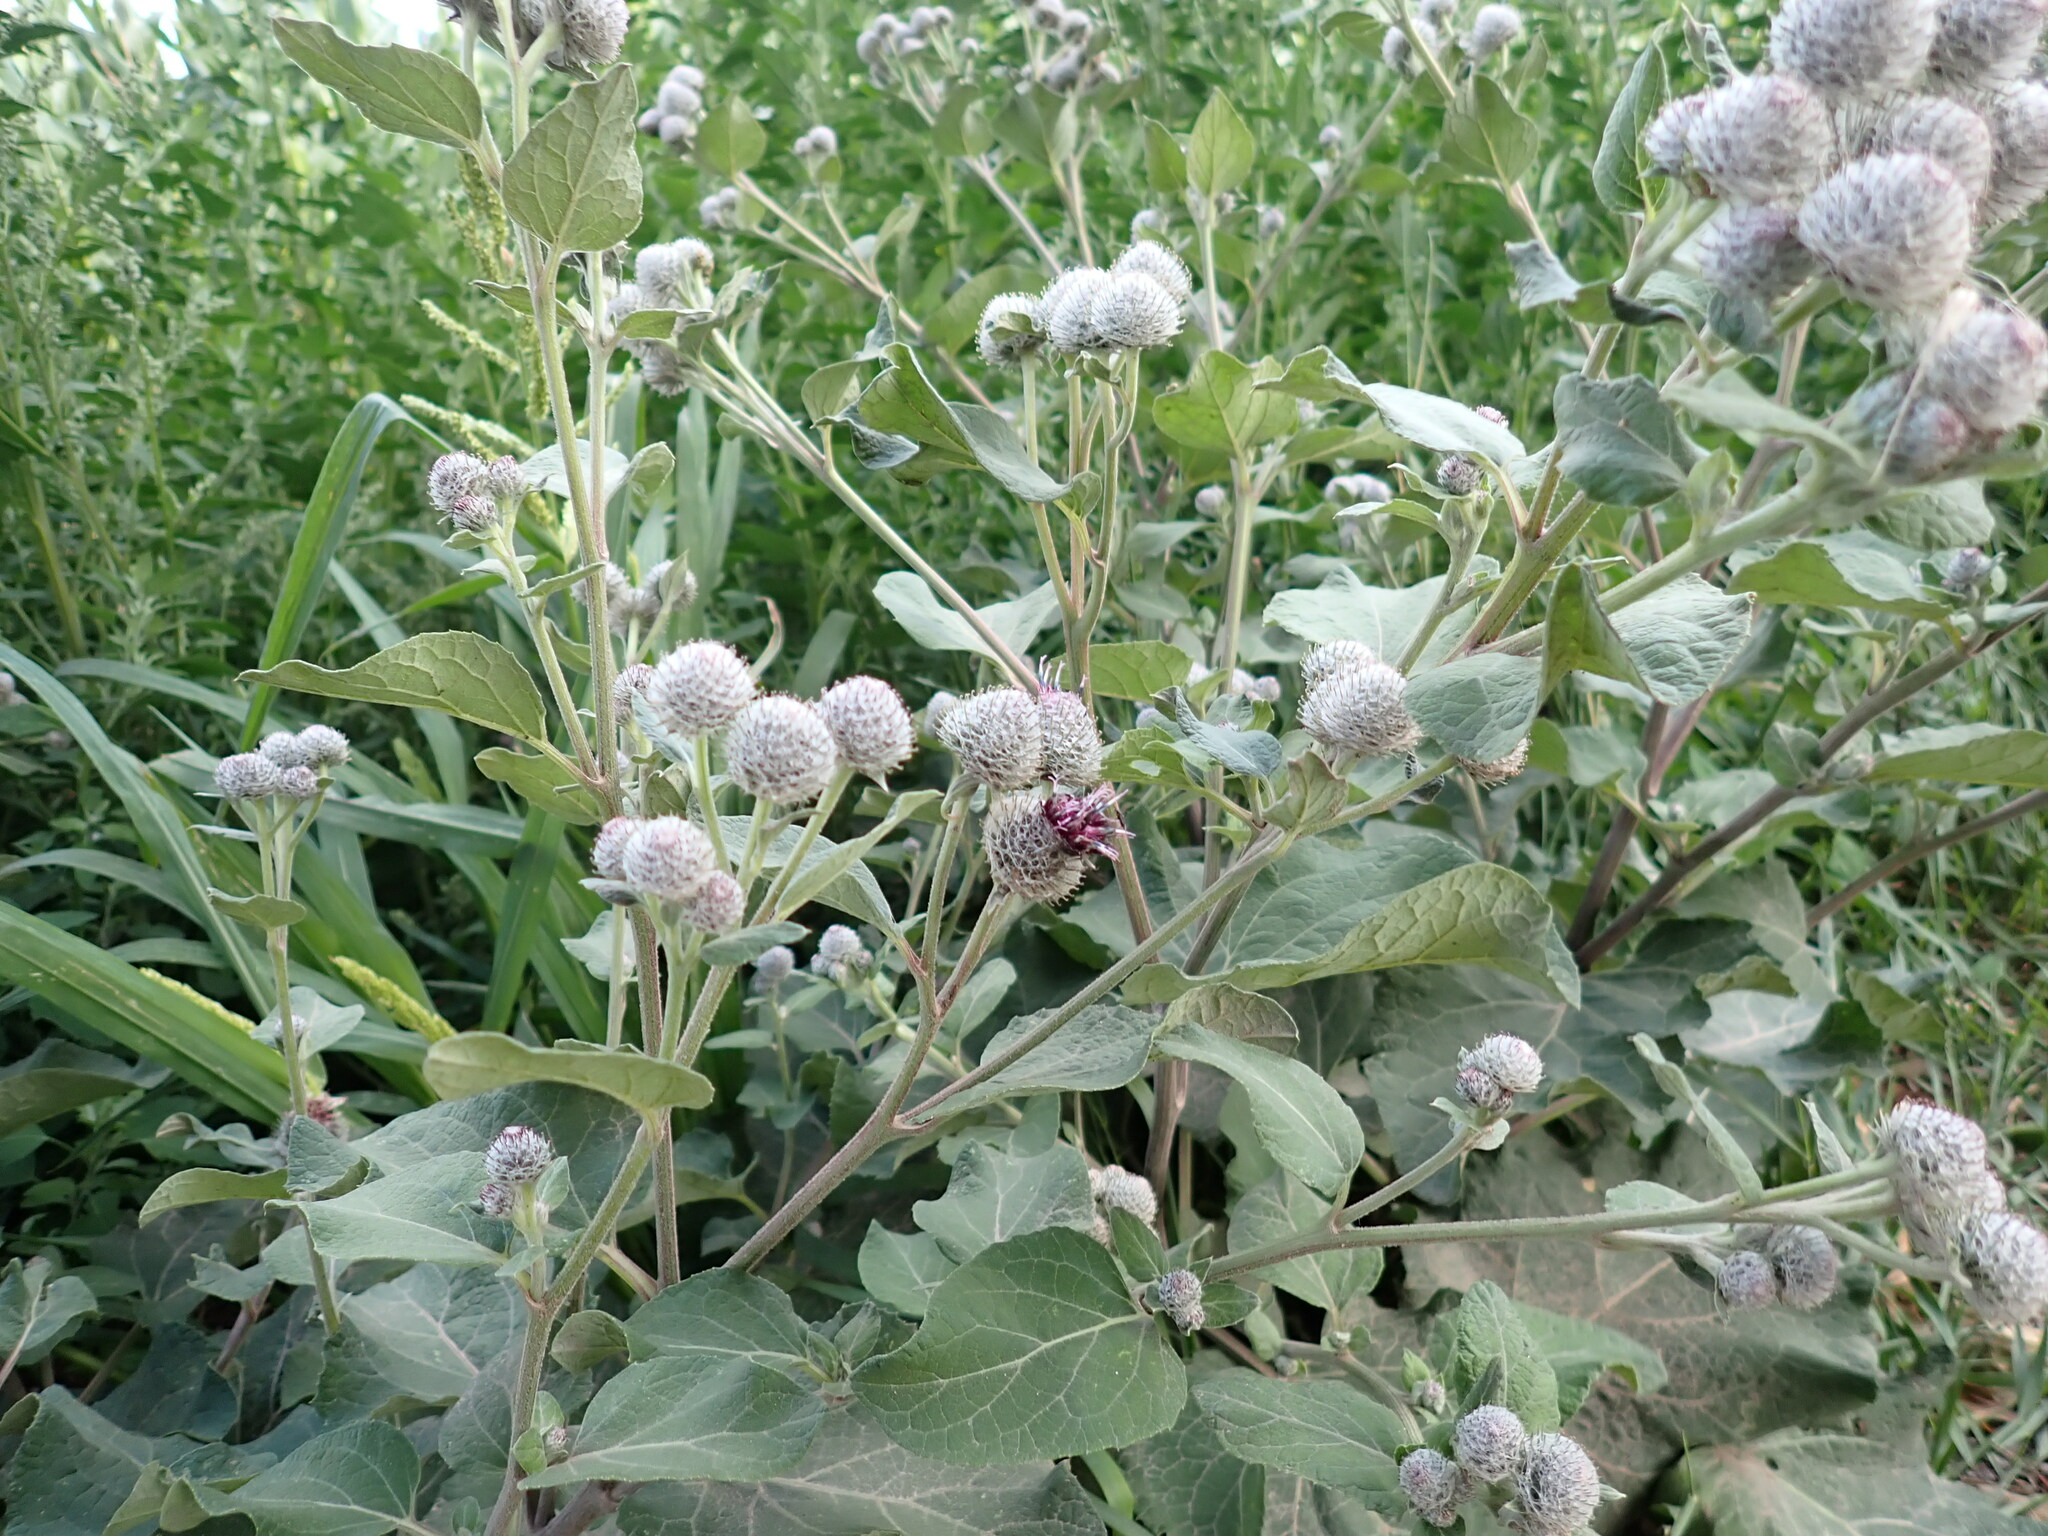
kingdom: Plantae
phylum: Tracheophyta
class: Magnoliopsida
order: Asterales
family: Asteraceae
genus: Arctium
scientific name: Arctium tomentosum
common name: Woolly burdock
